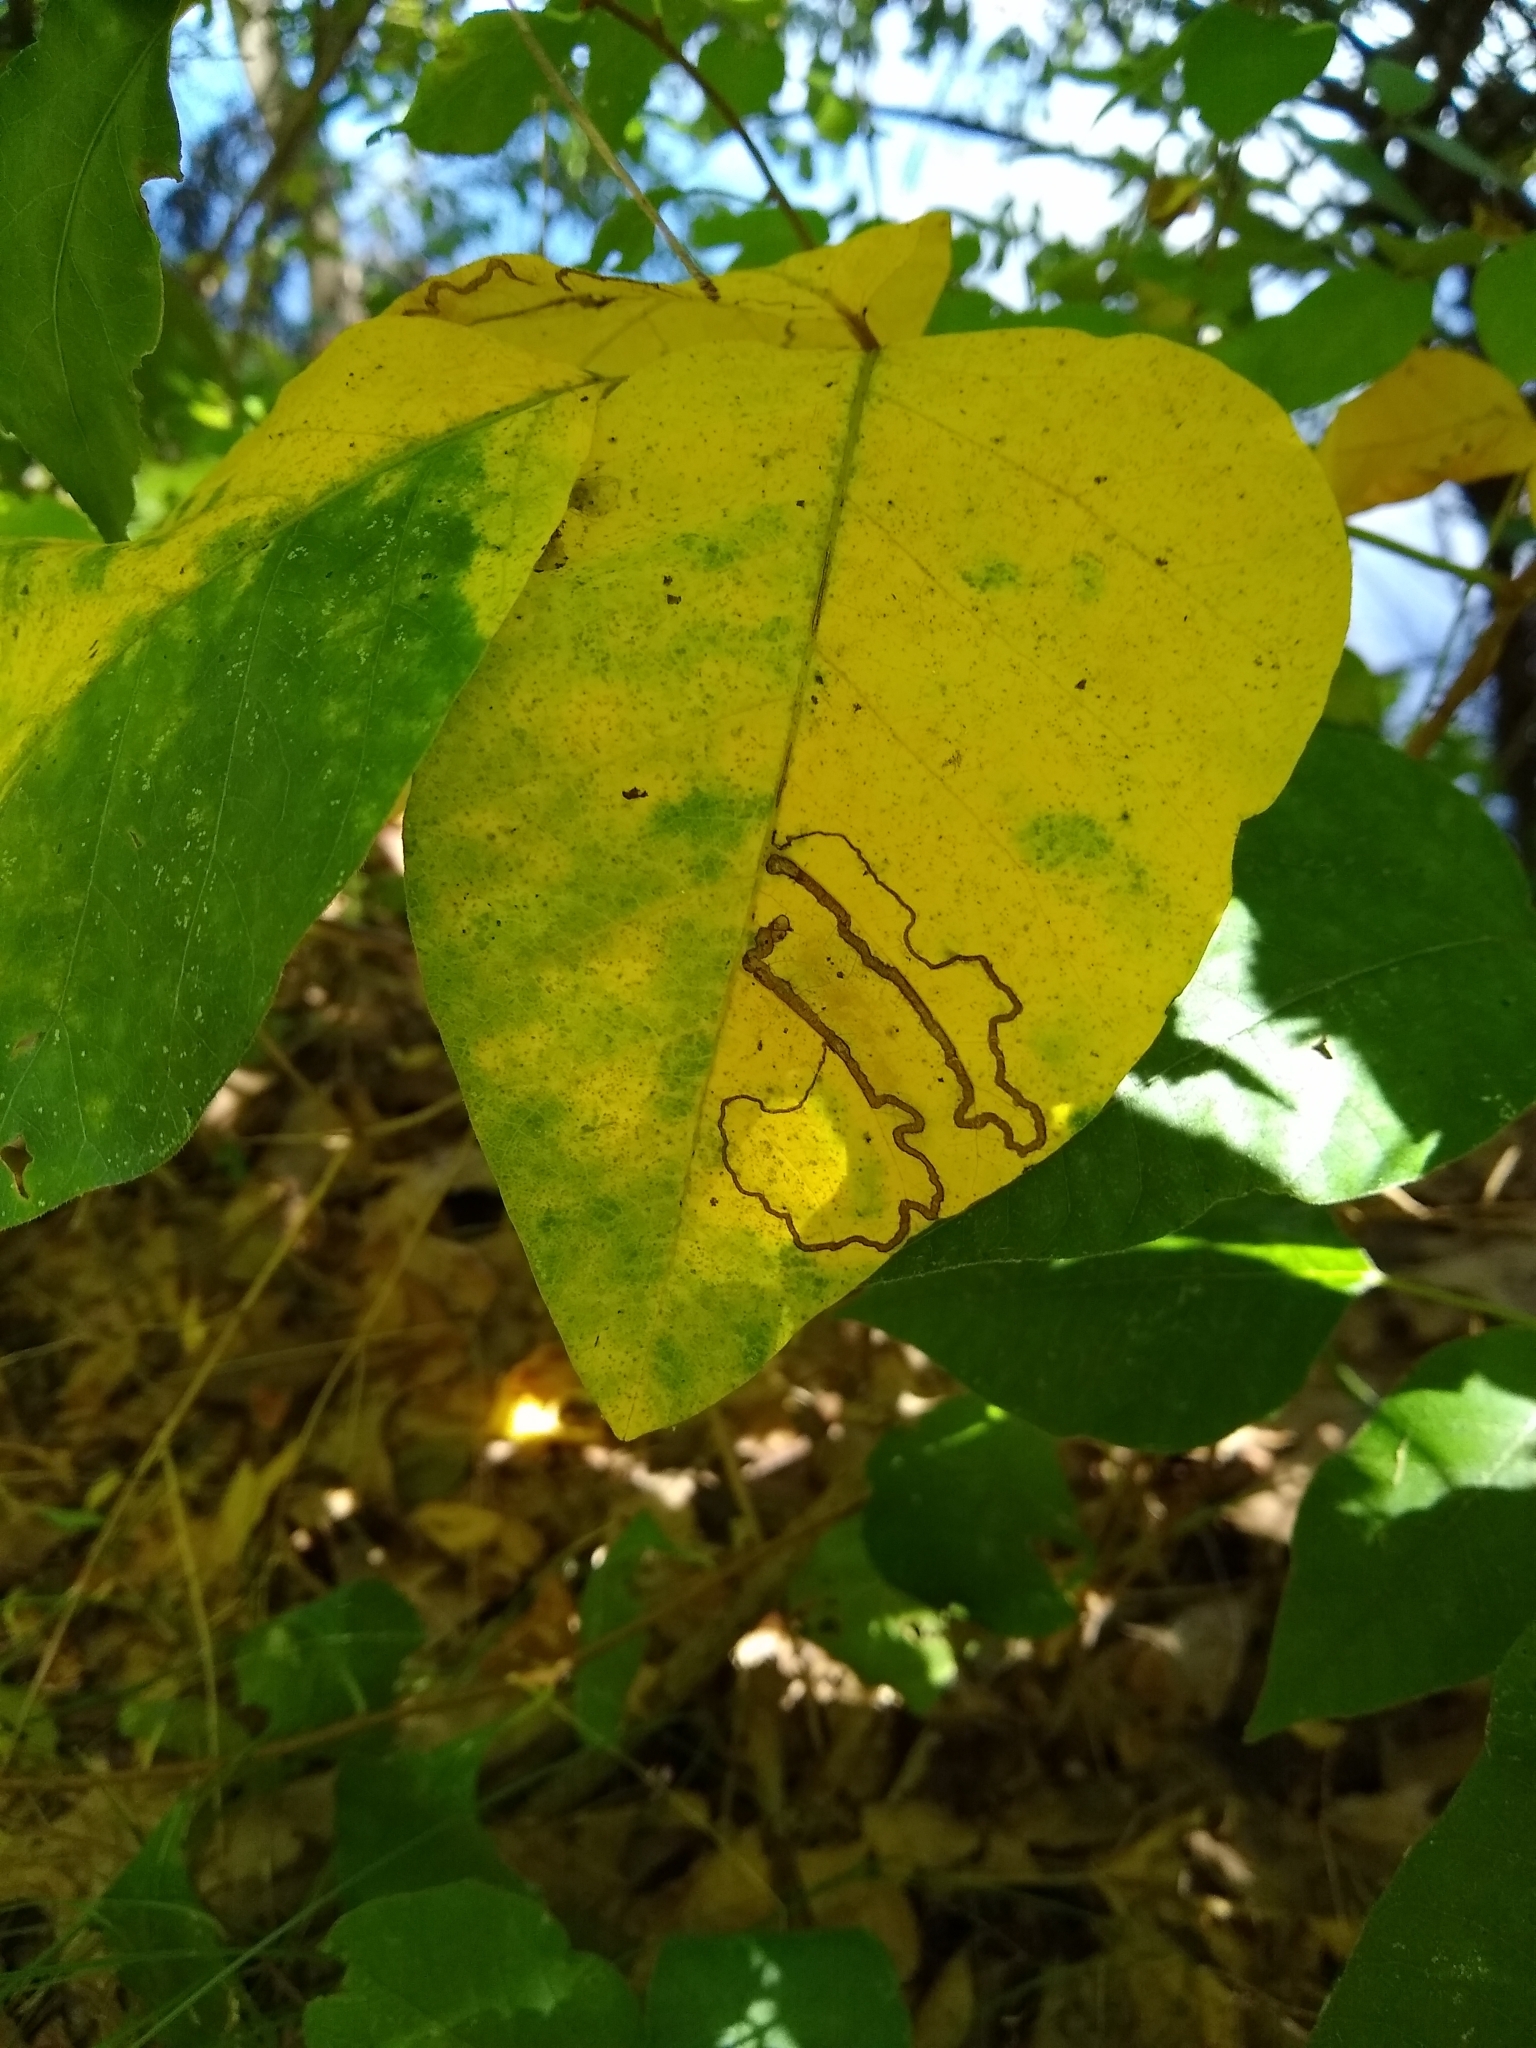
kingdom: Animalia
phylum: Arthropoda
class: Insecta
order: Lepidoptera
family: Nepticulidae
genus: Stigmella
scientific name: Stigmella rhoifoliella
